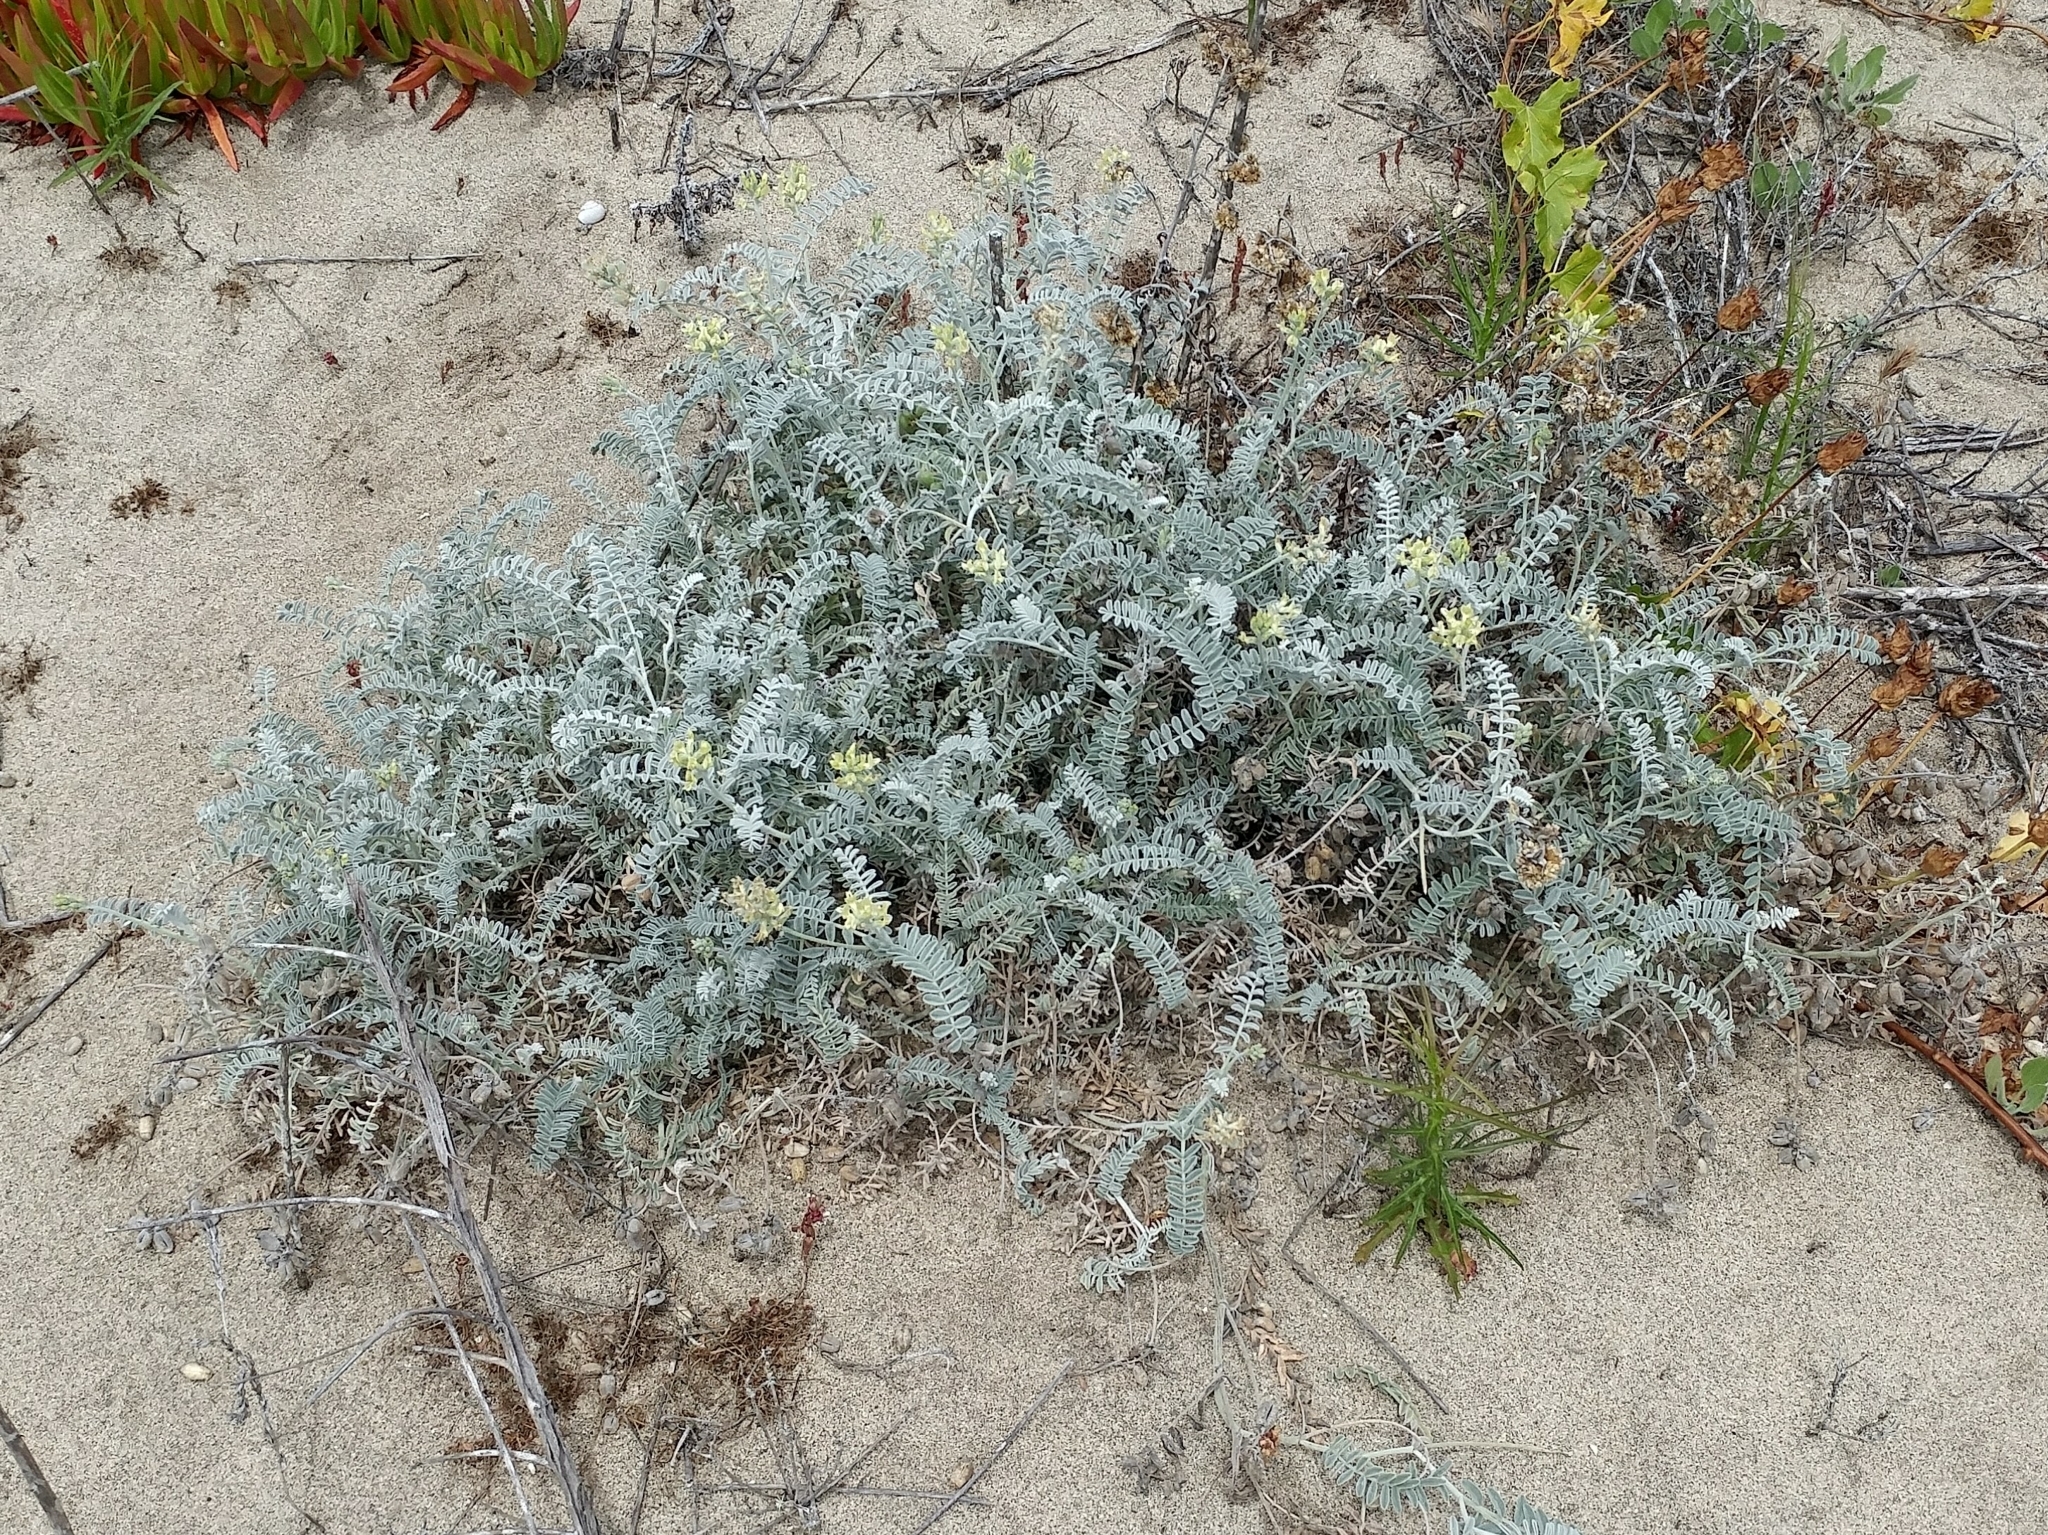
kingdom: Plantae
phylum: Tracheophyta
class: Magnoliopsida
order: Fabales
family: Fabaceae
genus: Astragalus
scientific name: Astragalus miguelensis
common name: San miguel milk-vetch
